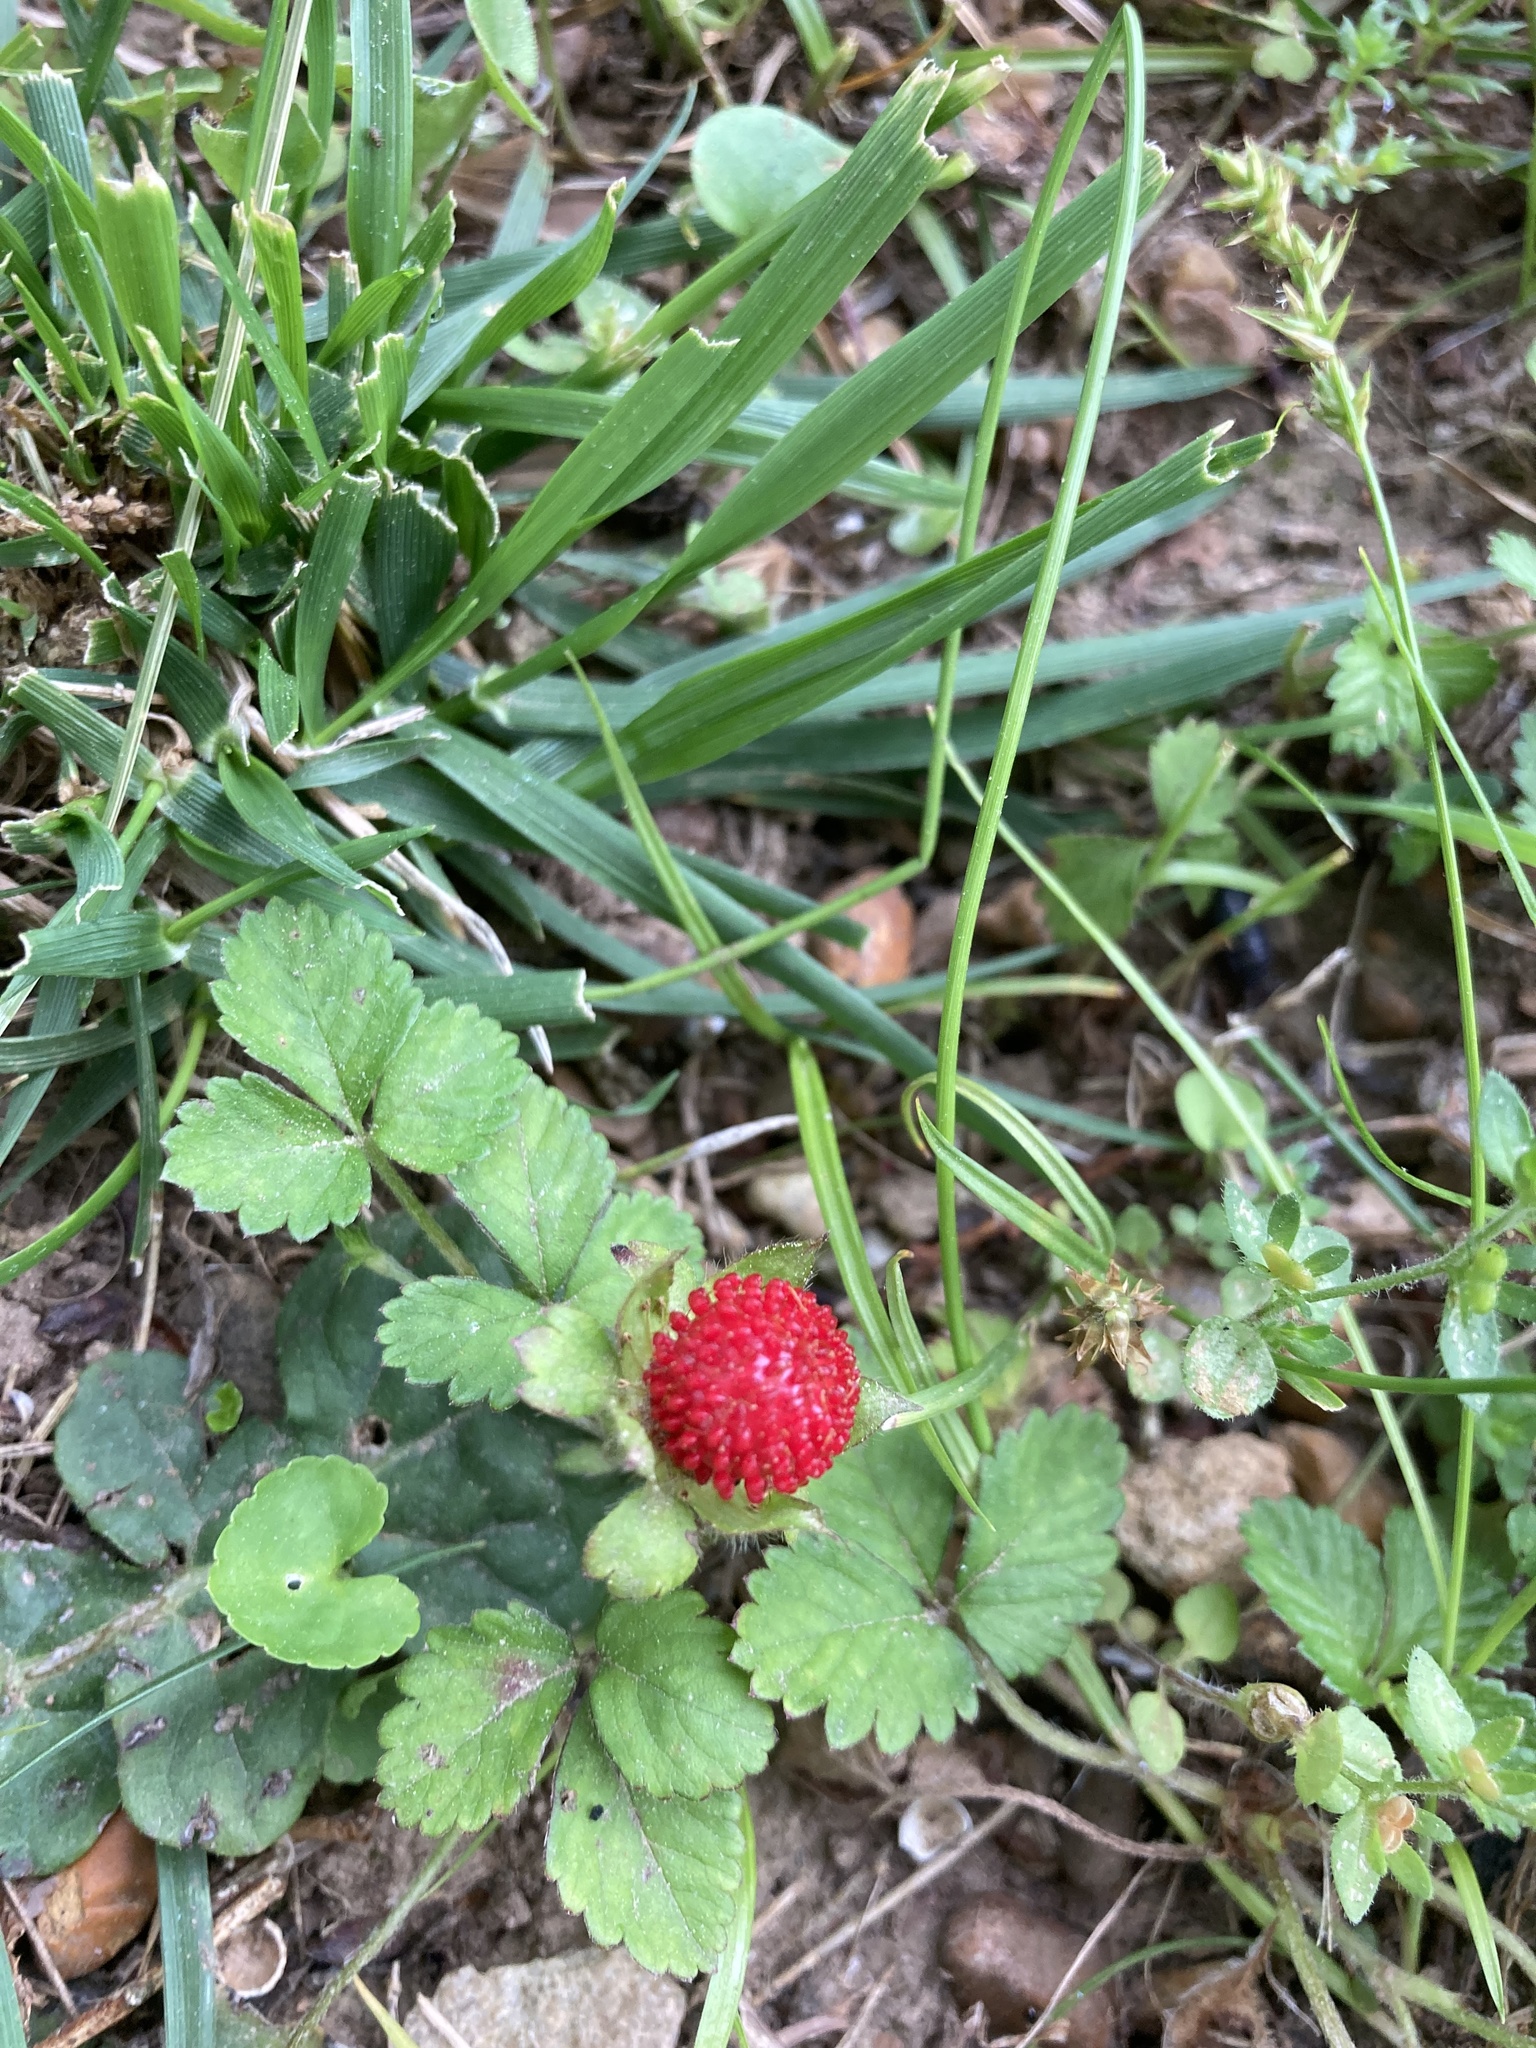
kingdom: Plantae
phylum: Tracheophyta
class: Magnoliopsida
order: Rosales
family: Rosaceae
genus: Potentilla
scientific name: Potentilla indica
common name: Yellow-flowered strawberry
